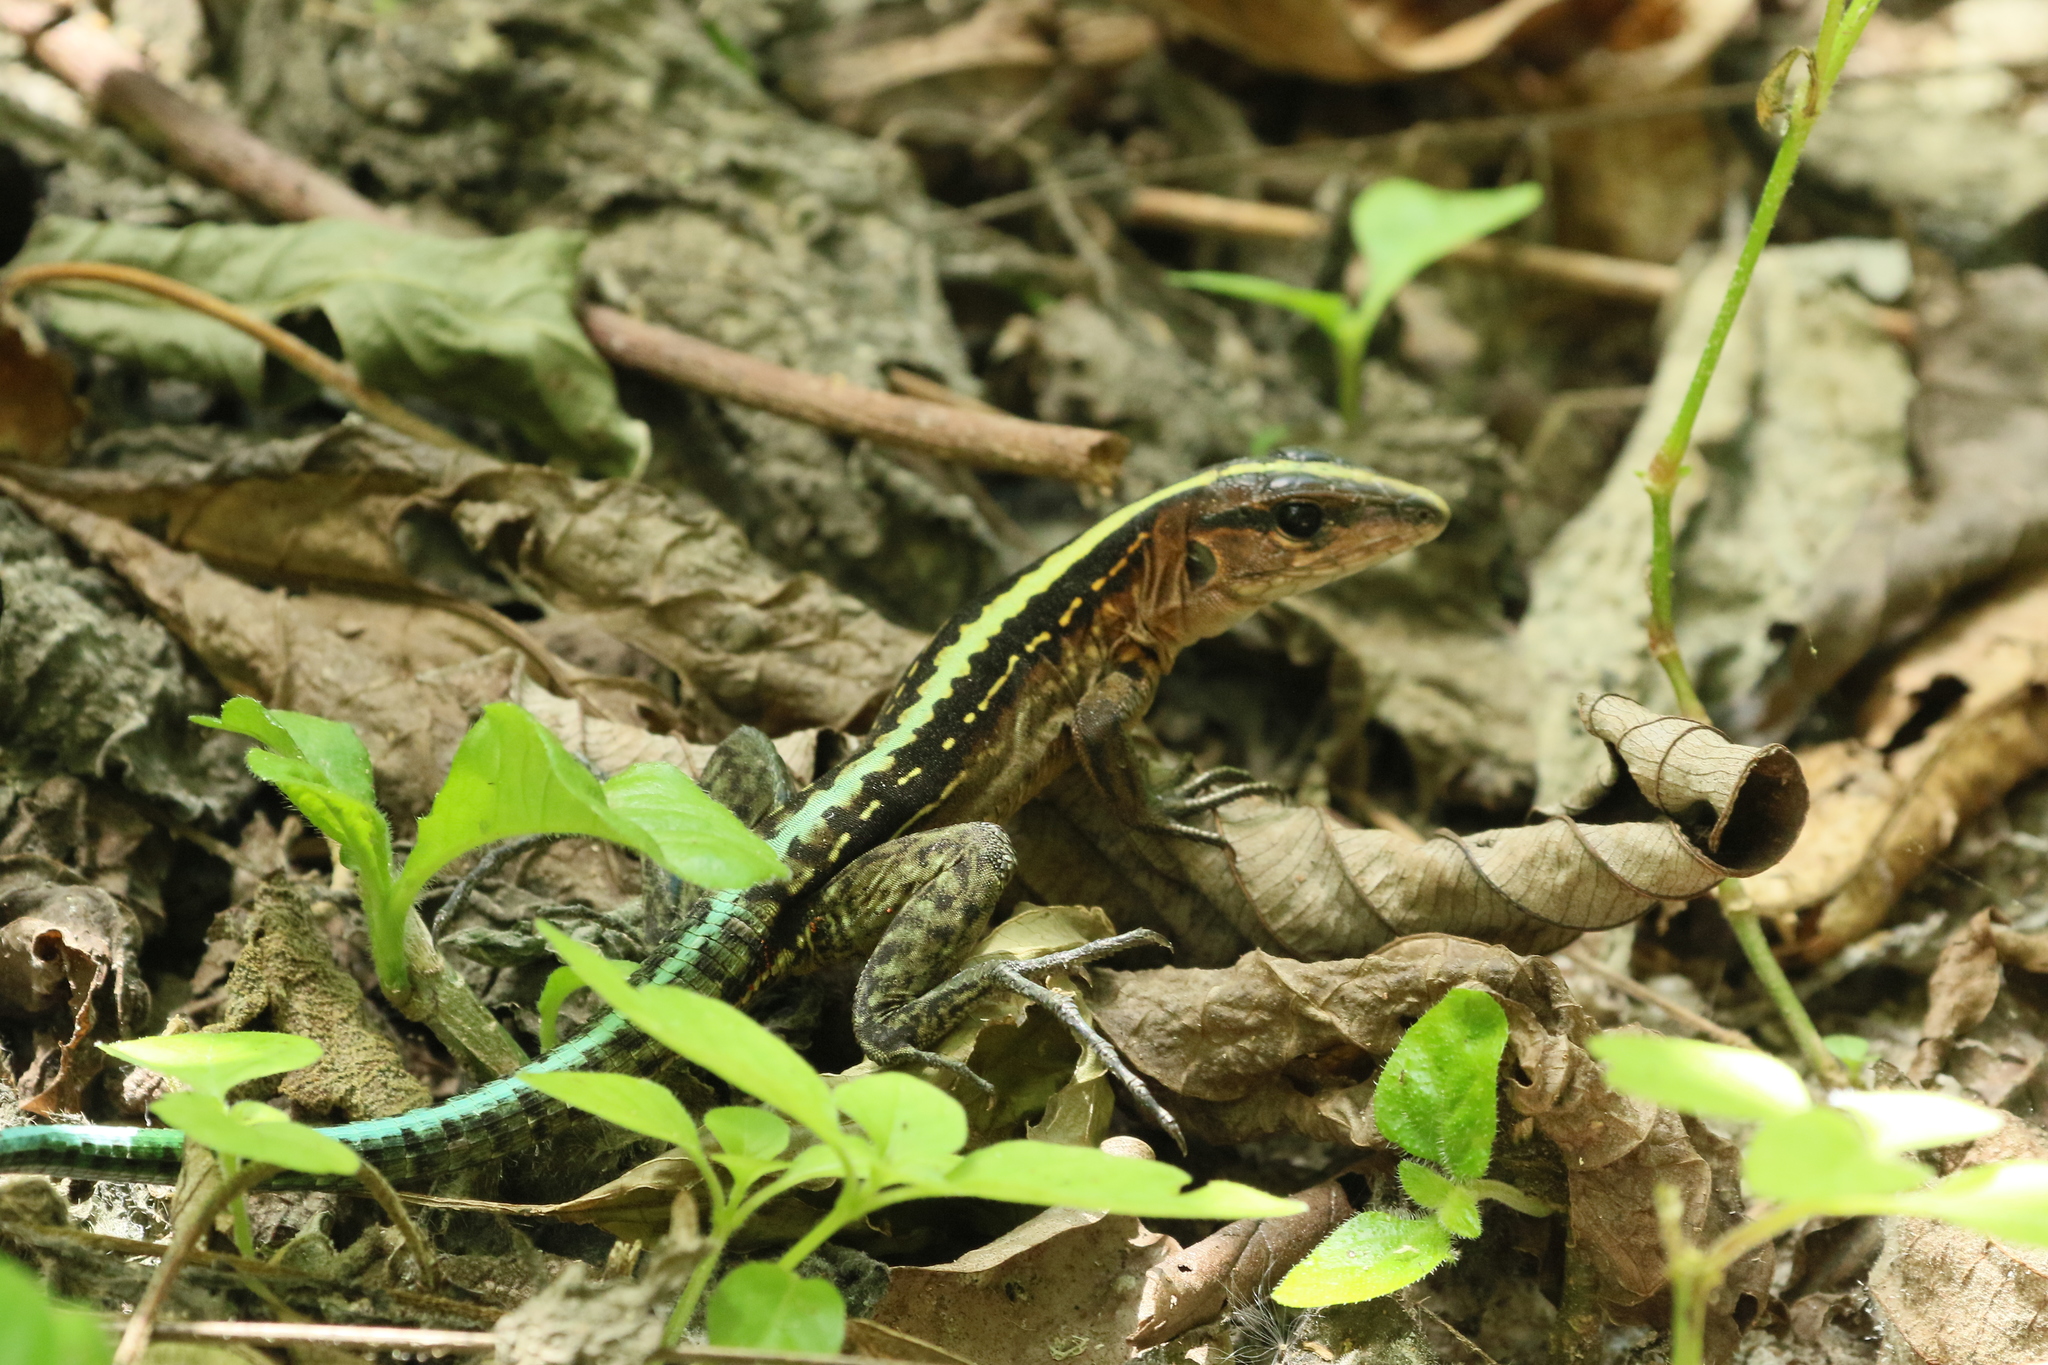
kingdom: Animalia
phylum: Chordata
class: Squamata
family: Teiidae
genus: Holcosus
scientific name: Holcosus festivus
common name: Middle american ameiva
